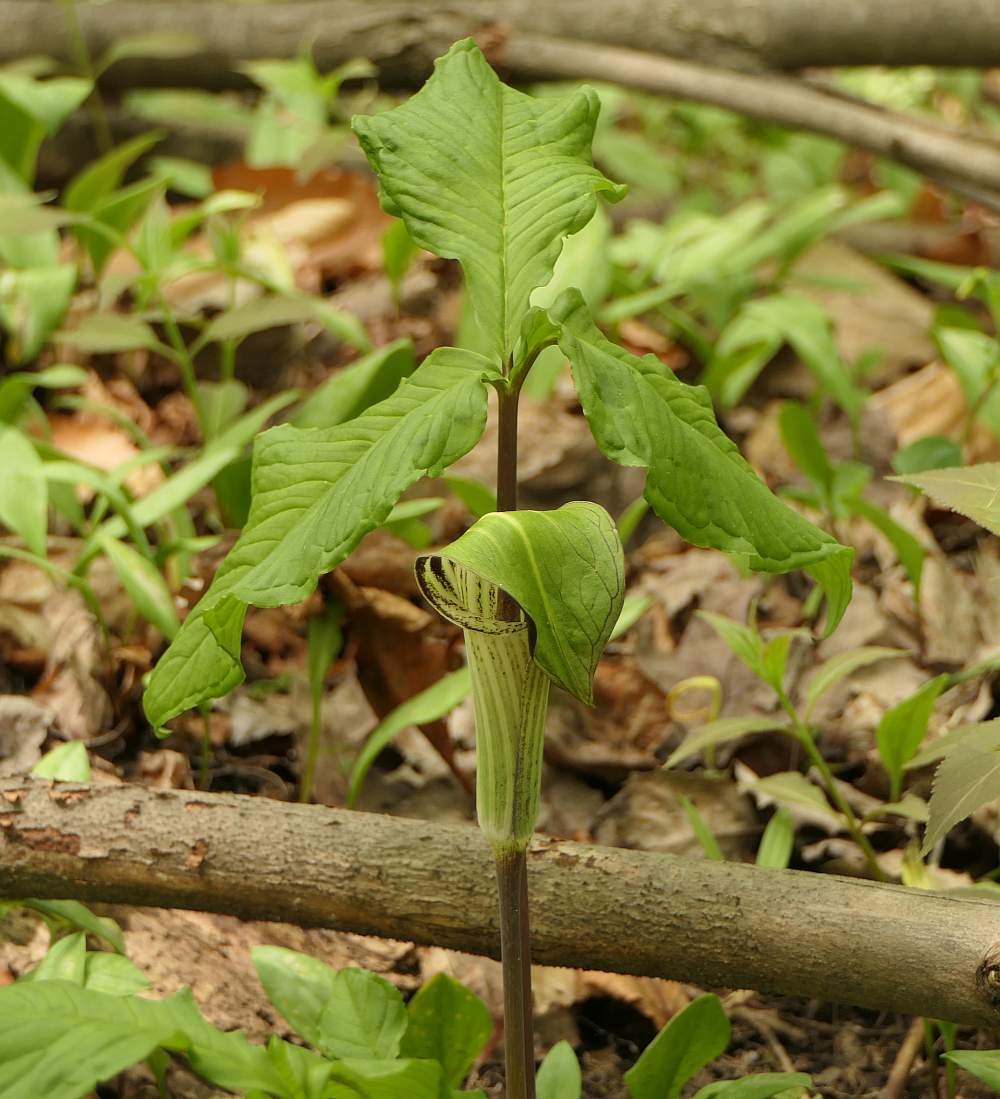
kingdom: Plantae
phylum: Tracheophyta
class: Liliopsida
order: Alismatales
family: Araceae
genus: Arisaema
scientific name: Arisaema triphyllum
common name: Jack-in-the-pulpit
